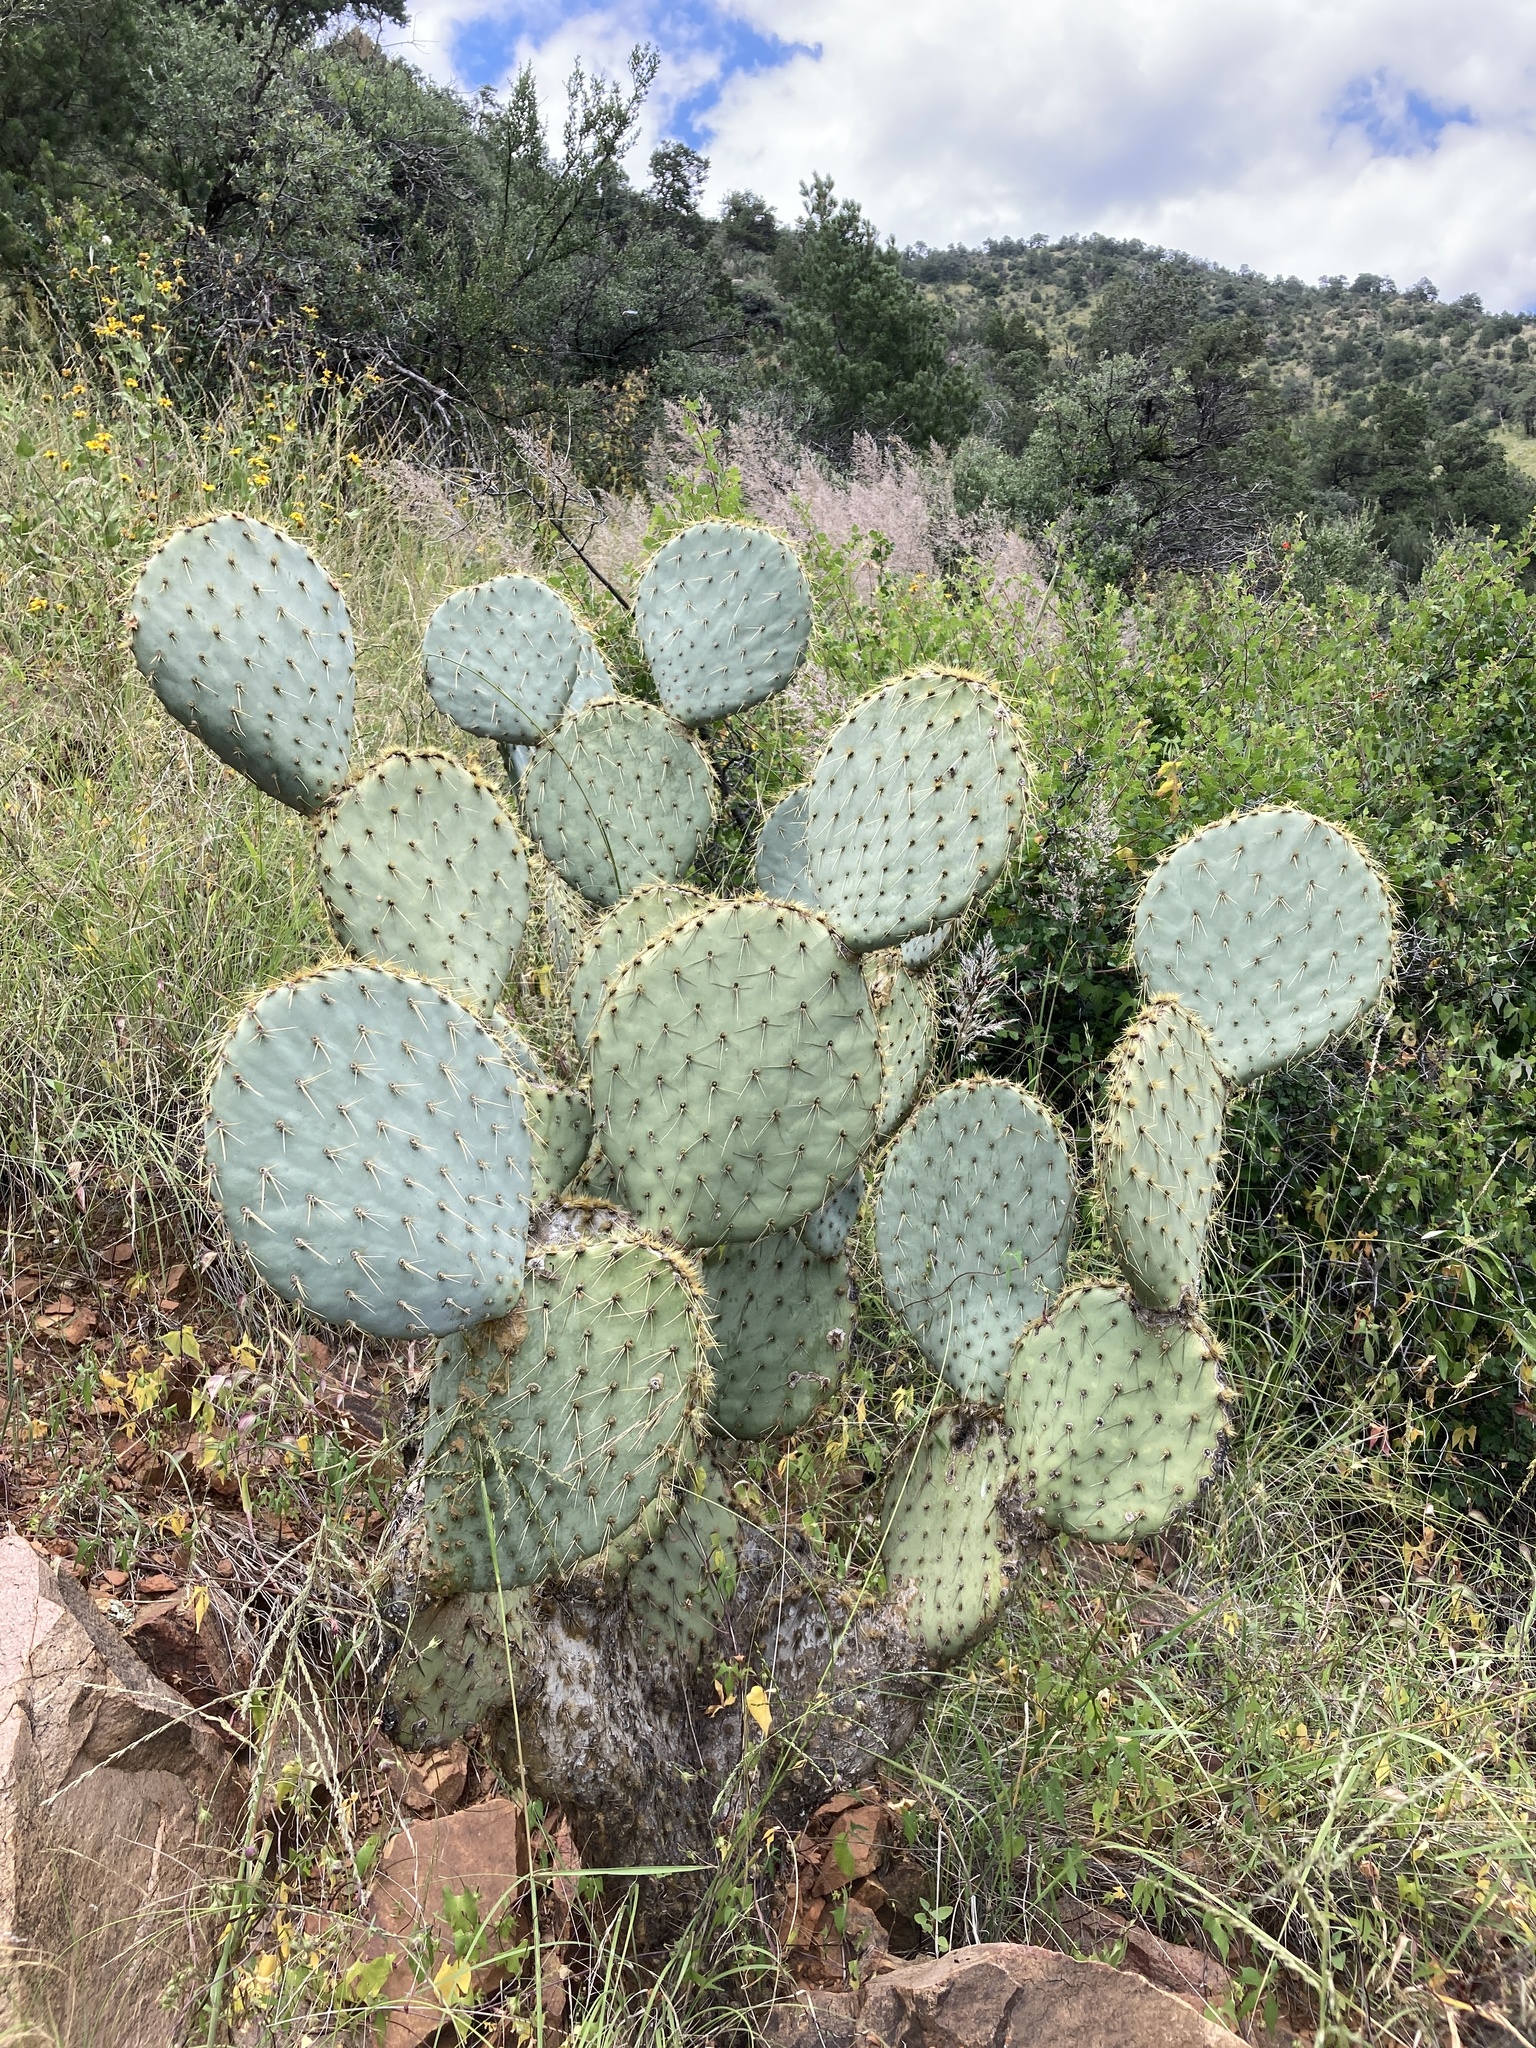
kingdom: Plantae
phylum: Tracheophyta
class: Magnoliopsida
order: Caryophyllales
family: Cactaceae
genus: Opuntia
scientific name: Opuntia chlorotica
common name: Dollar-joint prickly-pear
